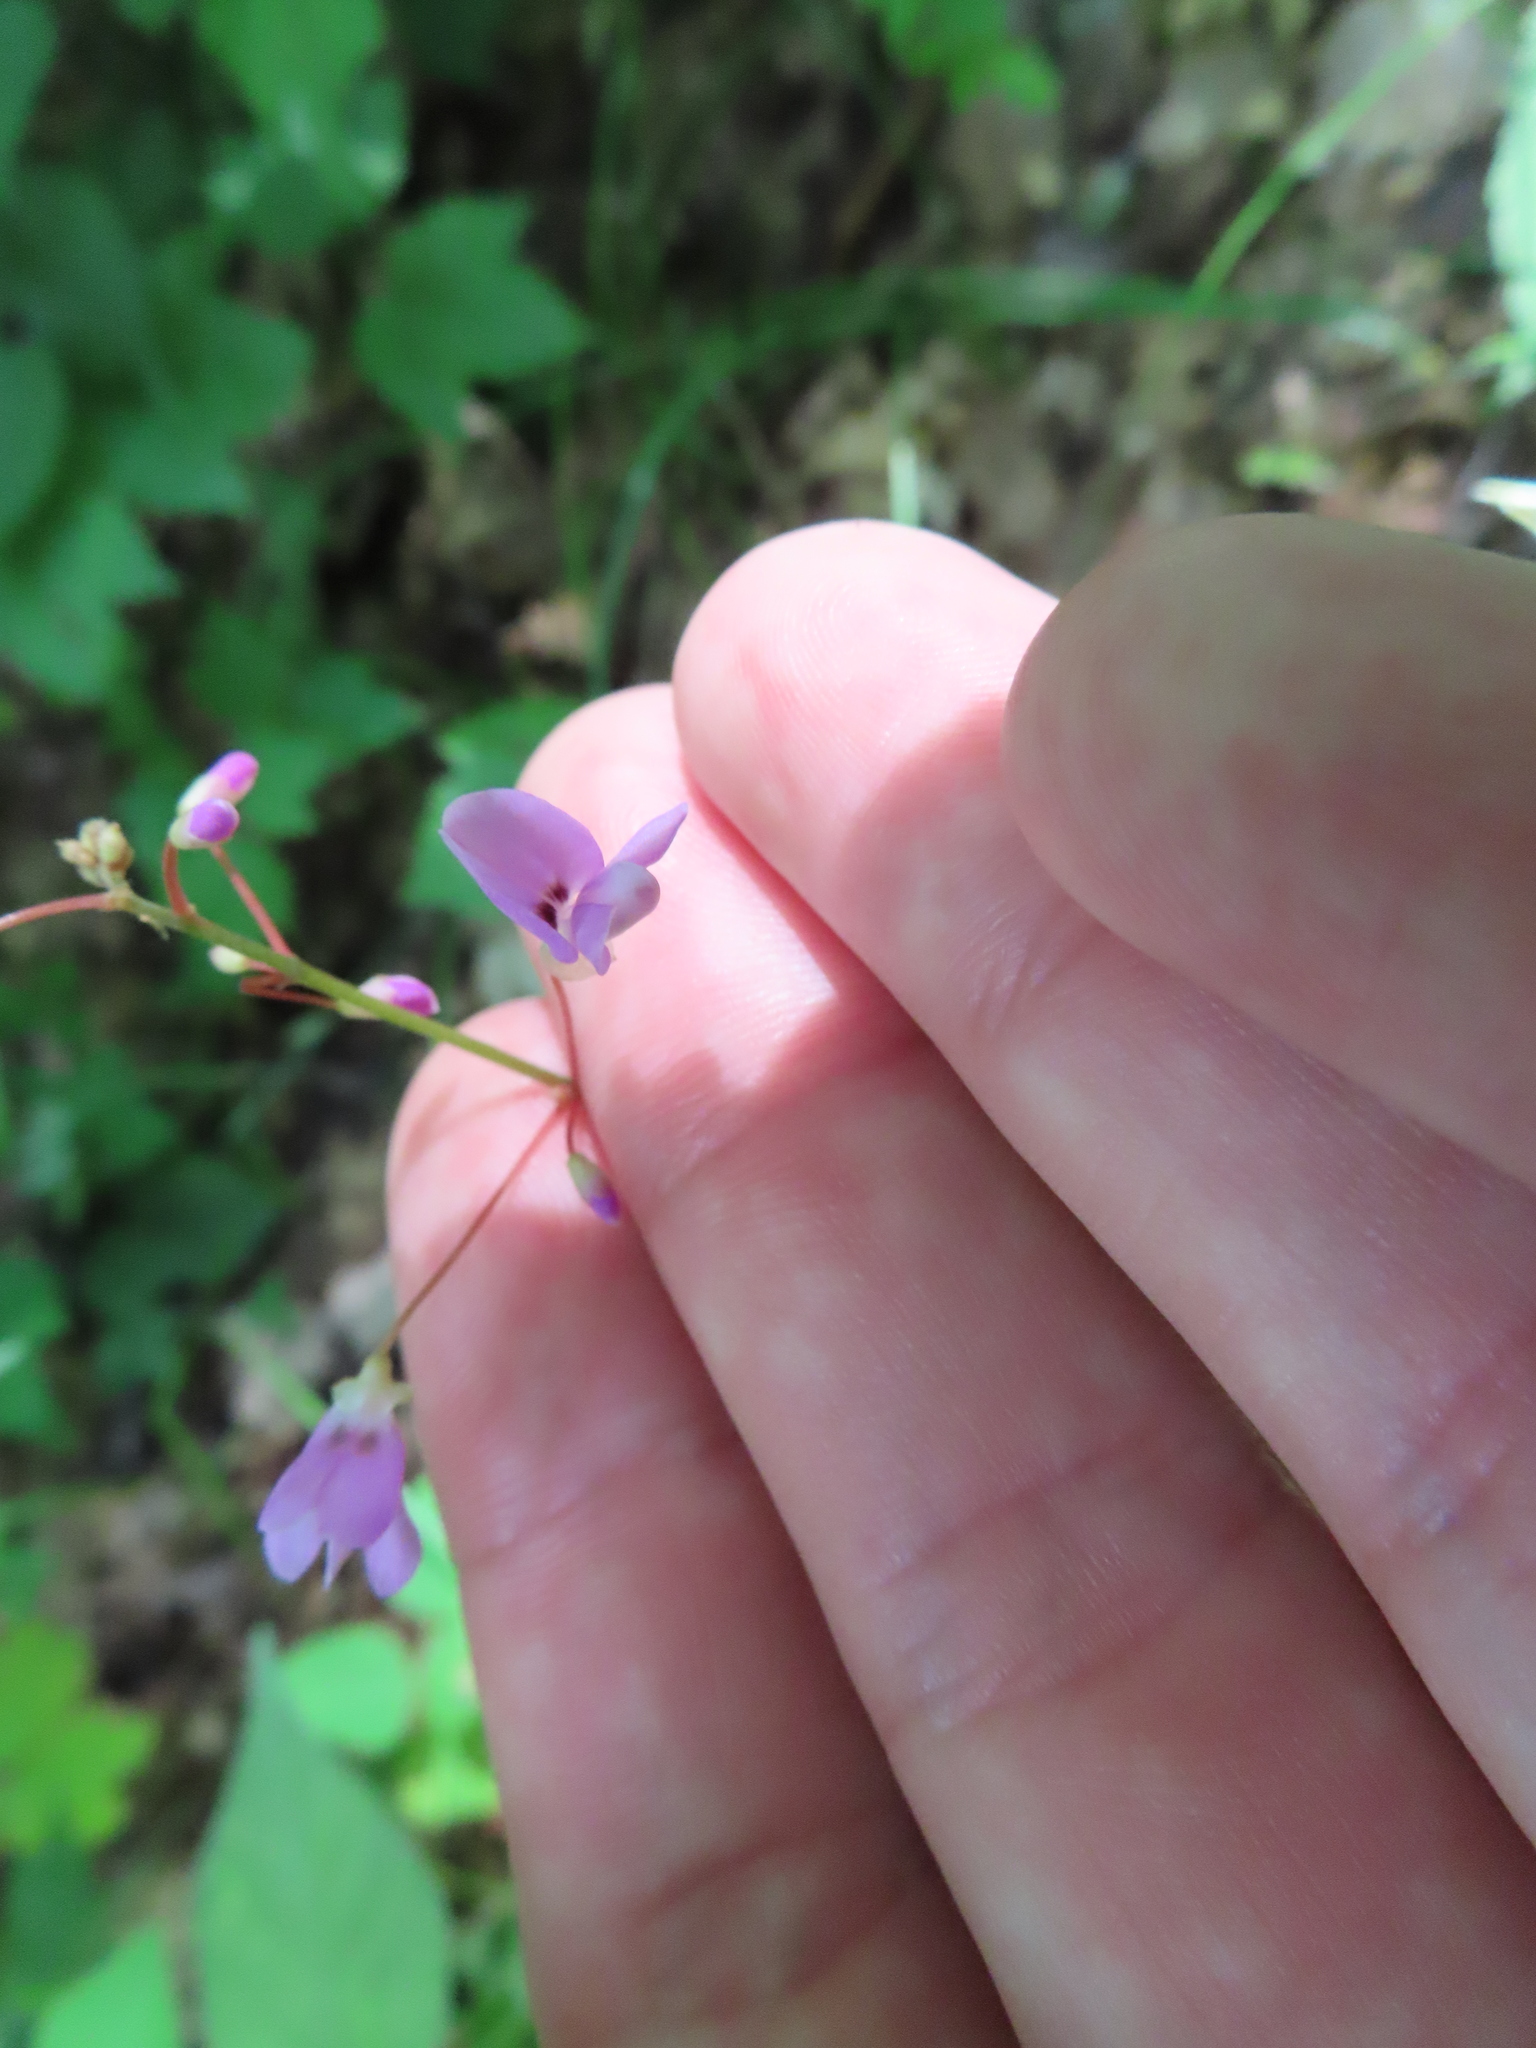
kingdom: Plantae
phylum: Tracheophyta
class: Magnoliopsida
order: Fabales
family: Fabaceae
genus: Hylodesmum
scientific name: Hylodesmum nudiflorum
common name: Bare-stemmed tick-trefoil
